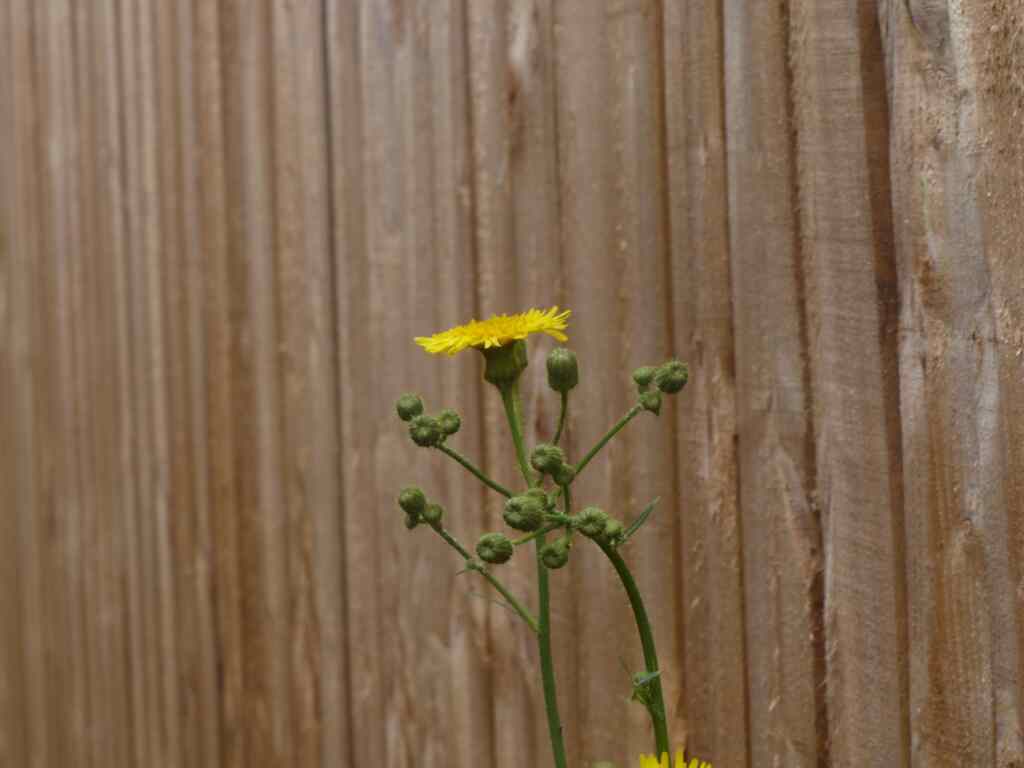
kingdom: Plantae
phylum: Tracheophyta
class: Magnoliopsida
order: Asterales
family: Asteraceae
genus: Sonchus
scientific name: Sonchus arvensis
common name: Perennial sow-thistle
